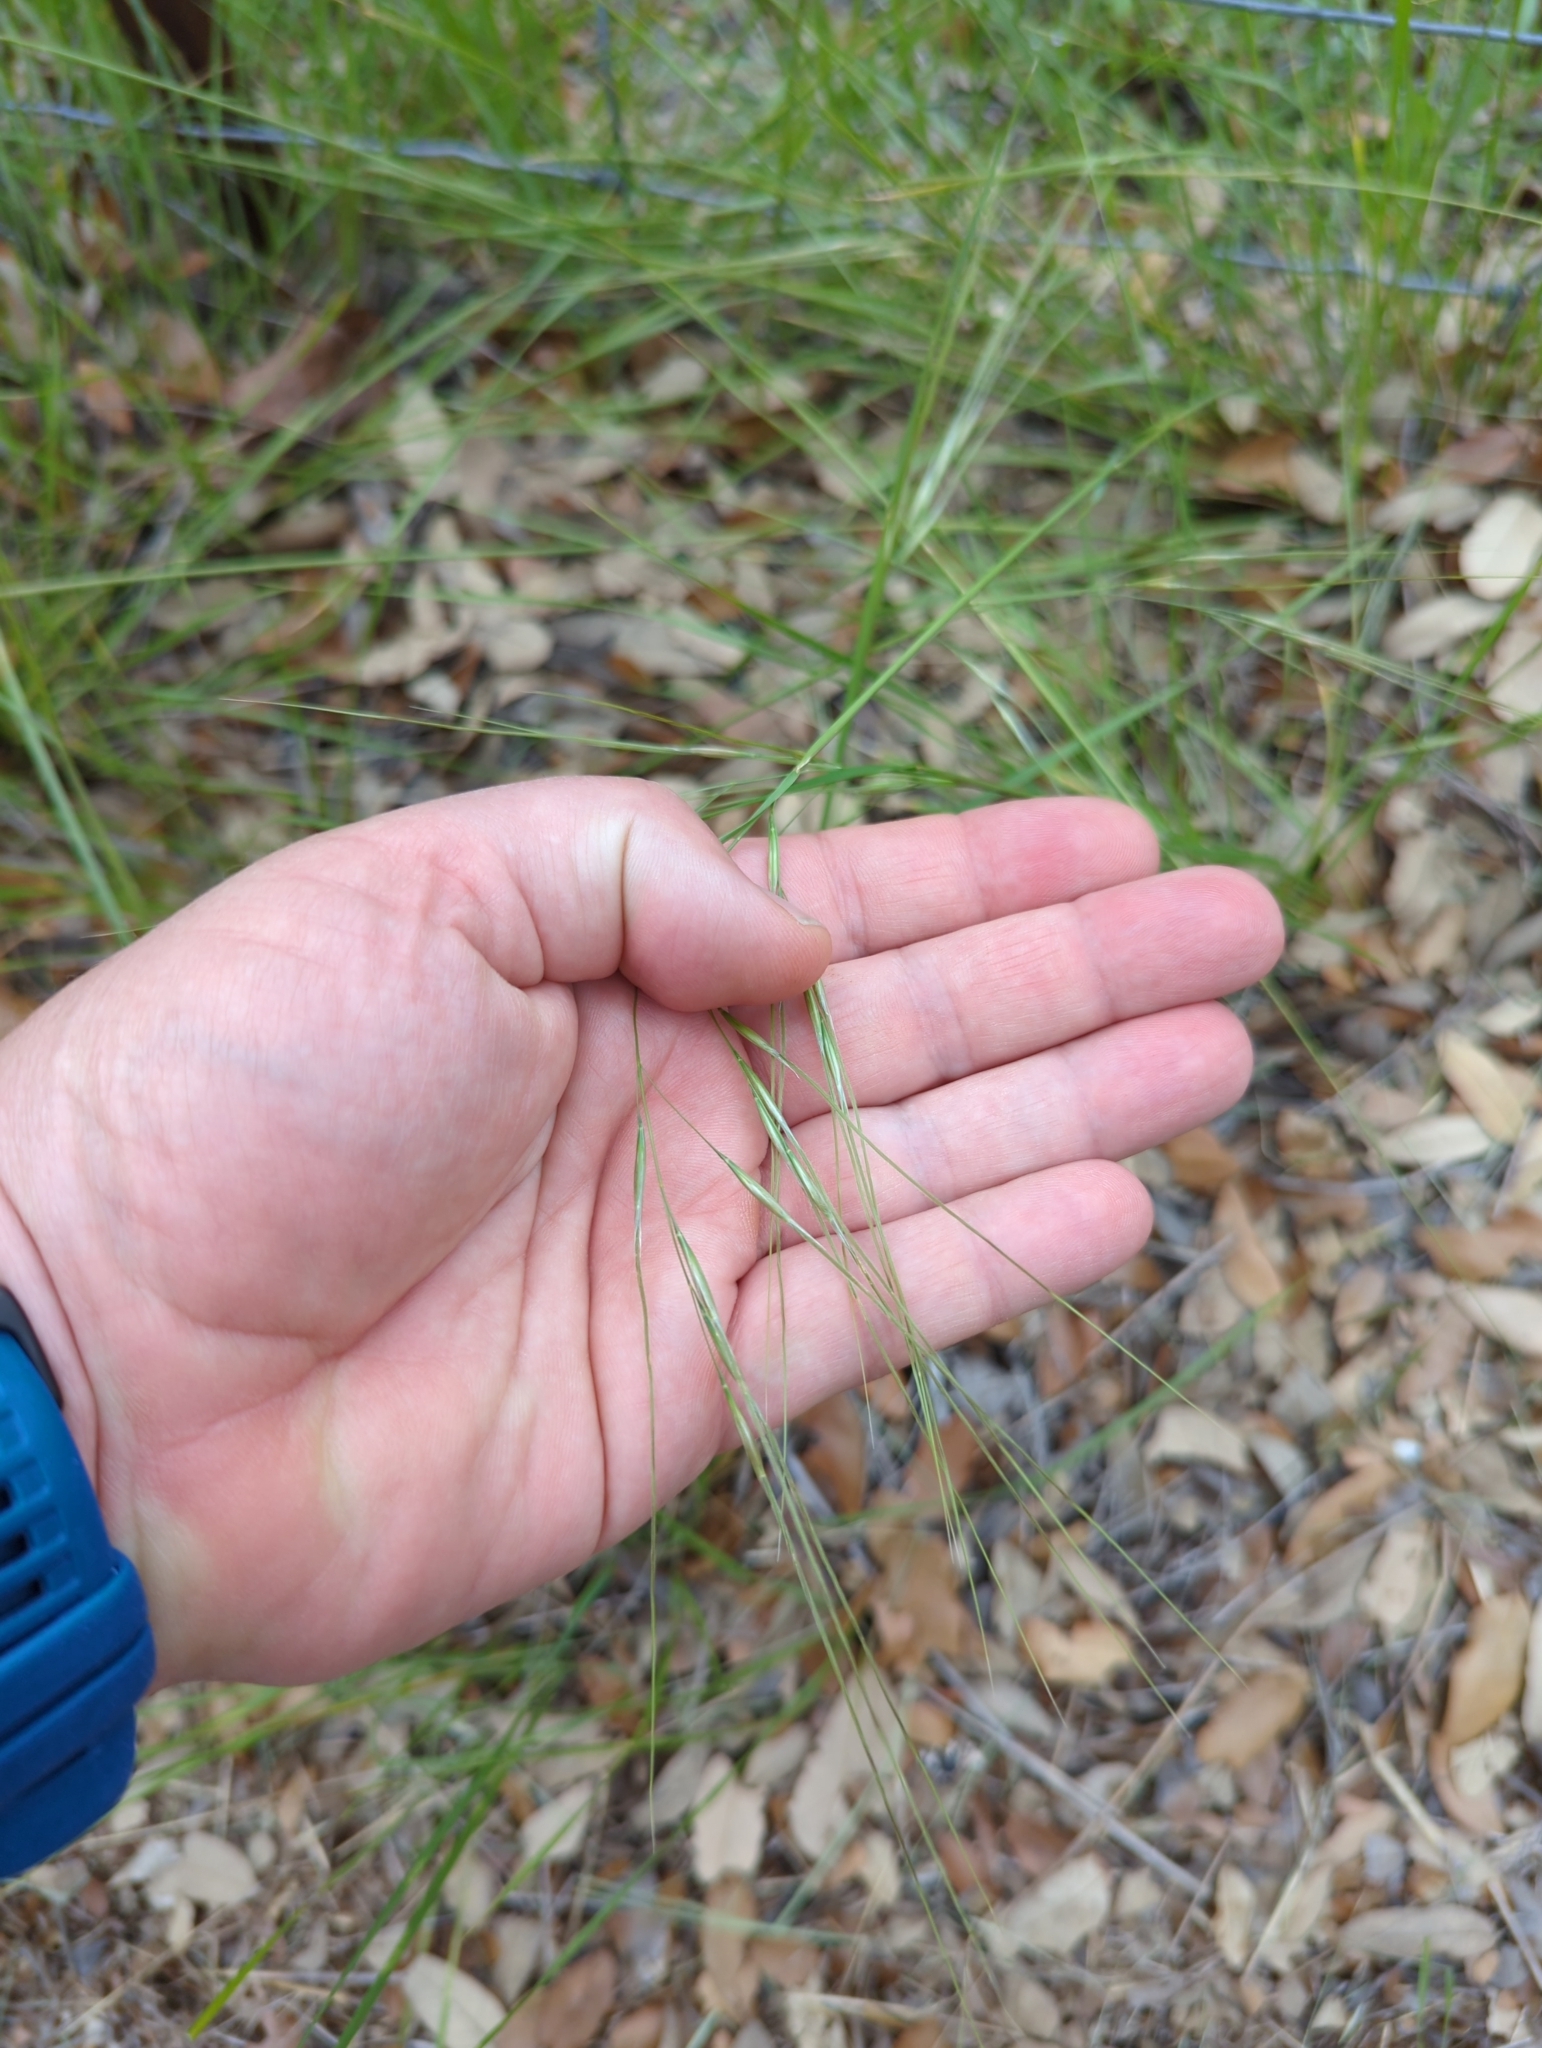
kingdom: Plantae
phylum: Tracheophyta
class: Liliopsida
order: Poales
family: Poaceae
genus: Nassella
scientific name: Nassella leucotricha
